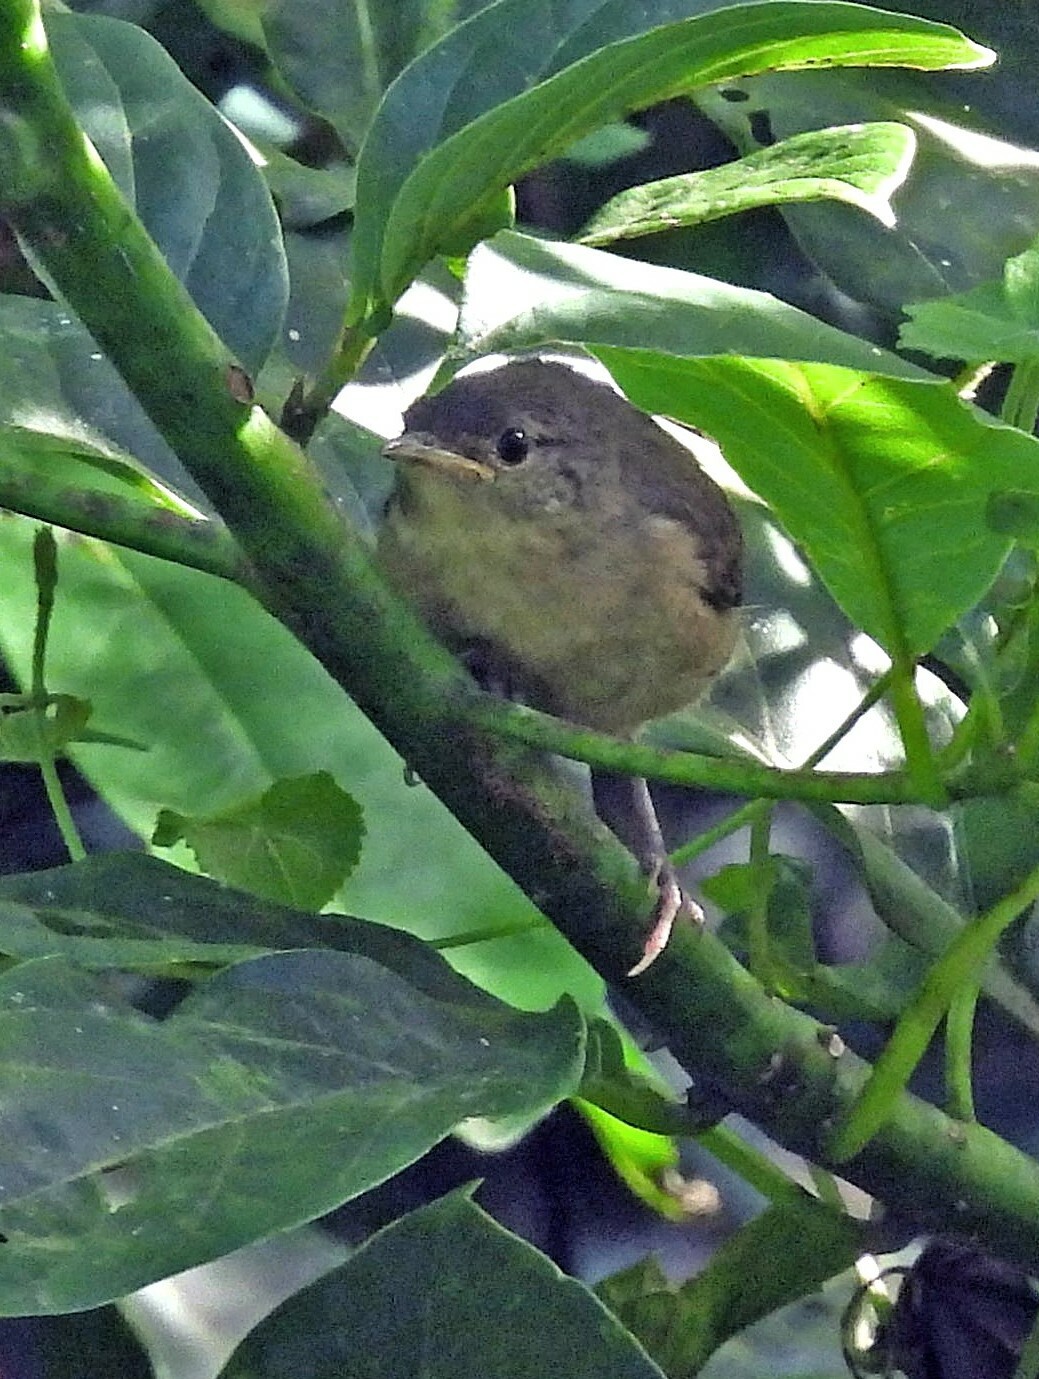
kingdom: Animalia
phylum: Chordata
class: Aves
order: Passeriformes
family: Troglodytidae
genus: Troglodytes
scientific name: Troglodytes aedon
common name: House wren
